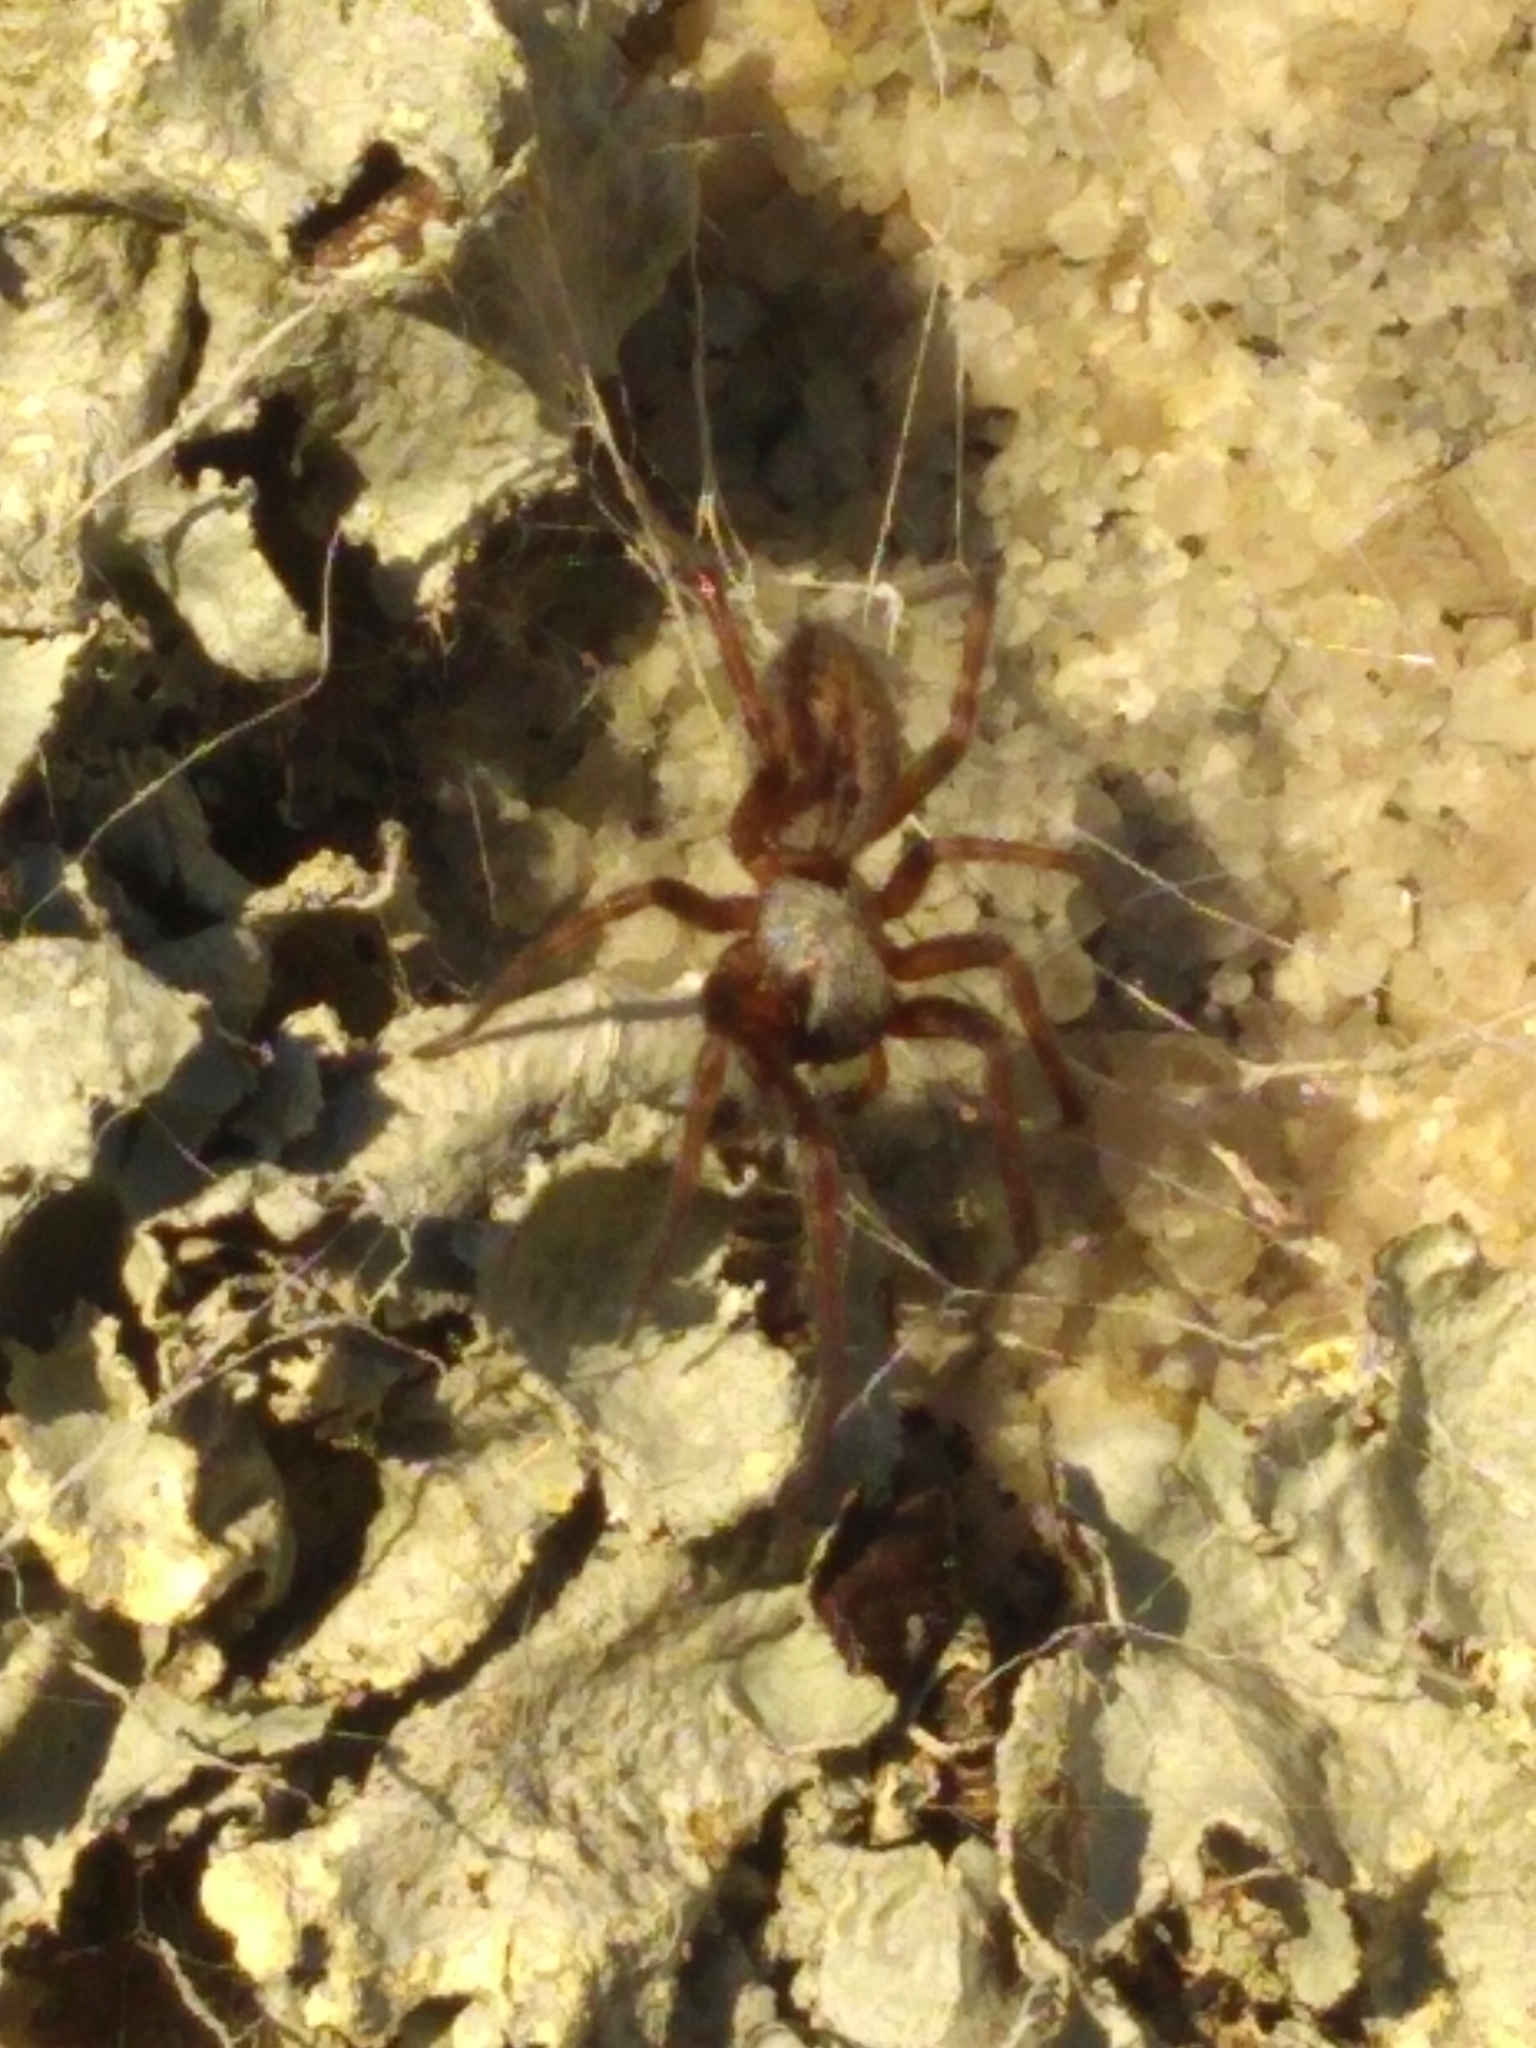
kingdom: Animalia
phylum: Arthropoda
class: Arachnida
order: Araneae
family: Desidae
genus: Badumna
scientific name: Badumna longinqua
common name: Gray house spider
